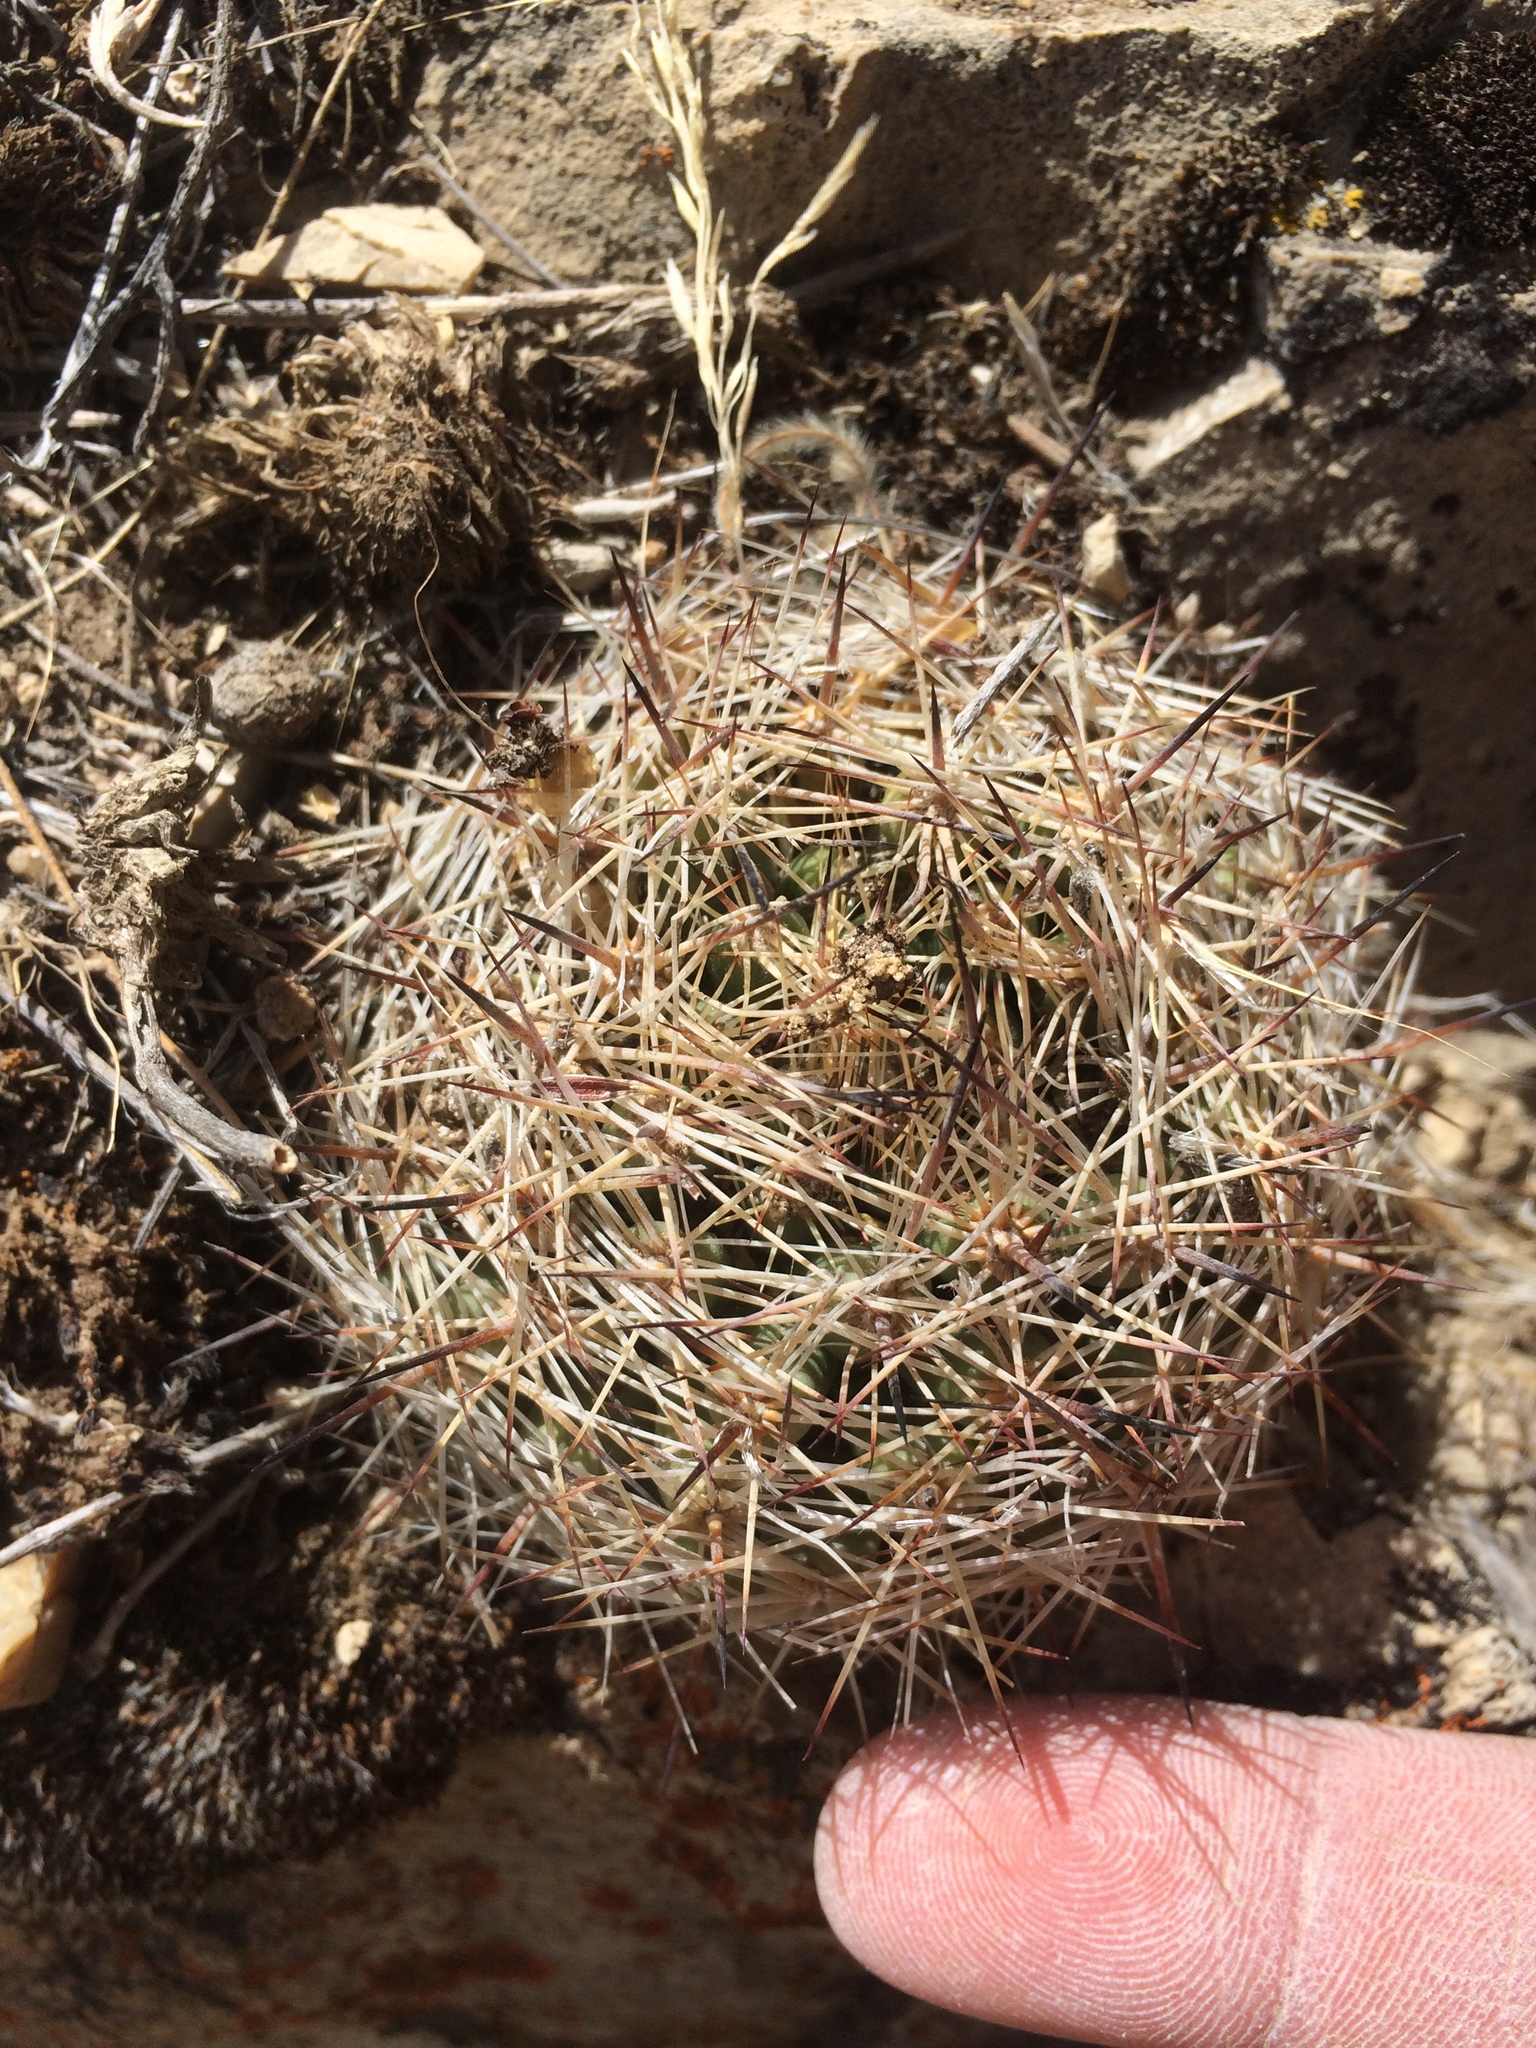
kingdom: Plantae
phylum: Tracheophyta
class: Magnoliopsida
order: Caryophyllales
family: Cactaceae
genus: Pelecyphora
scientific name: Pelecyphora vivipara
